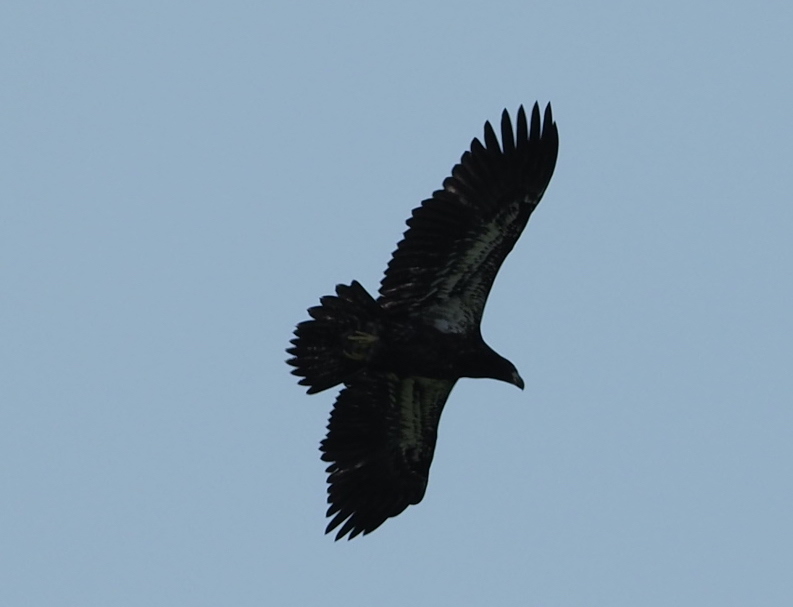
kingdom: Animalia
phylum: Chordata
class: Aves
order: Accipitriformes
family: Accipitridae
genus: Haliaeetus
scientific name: Haliaeetus leucocephalus
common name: Bald eagle
